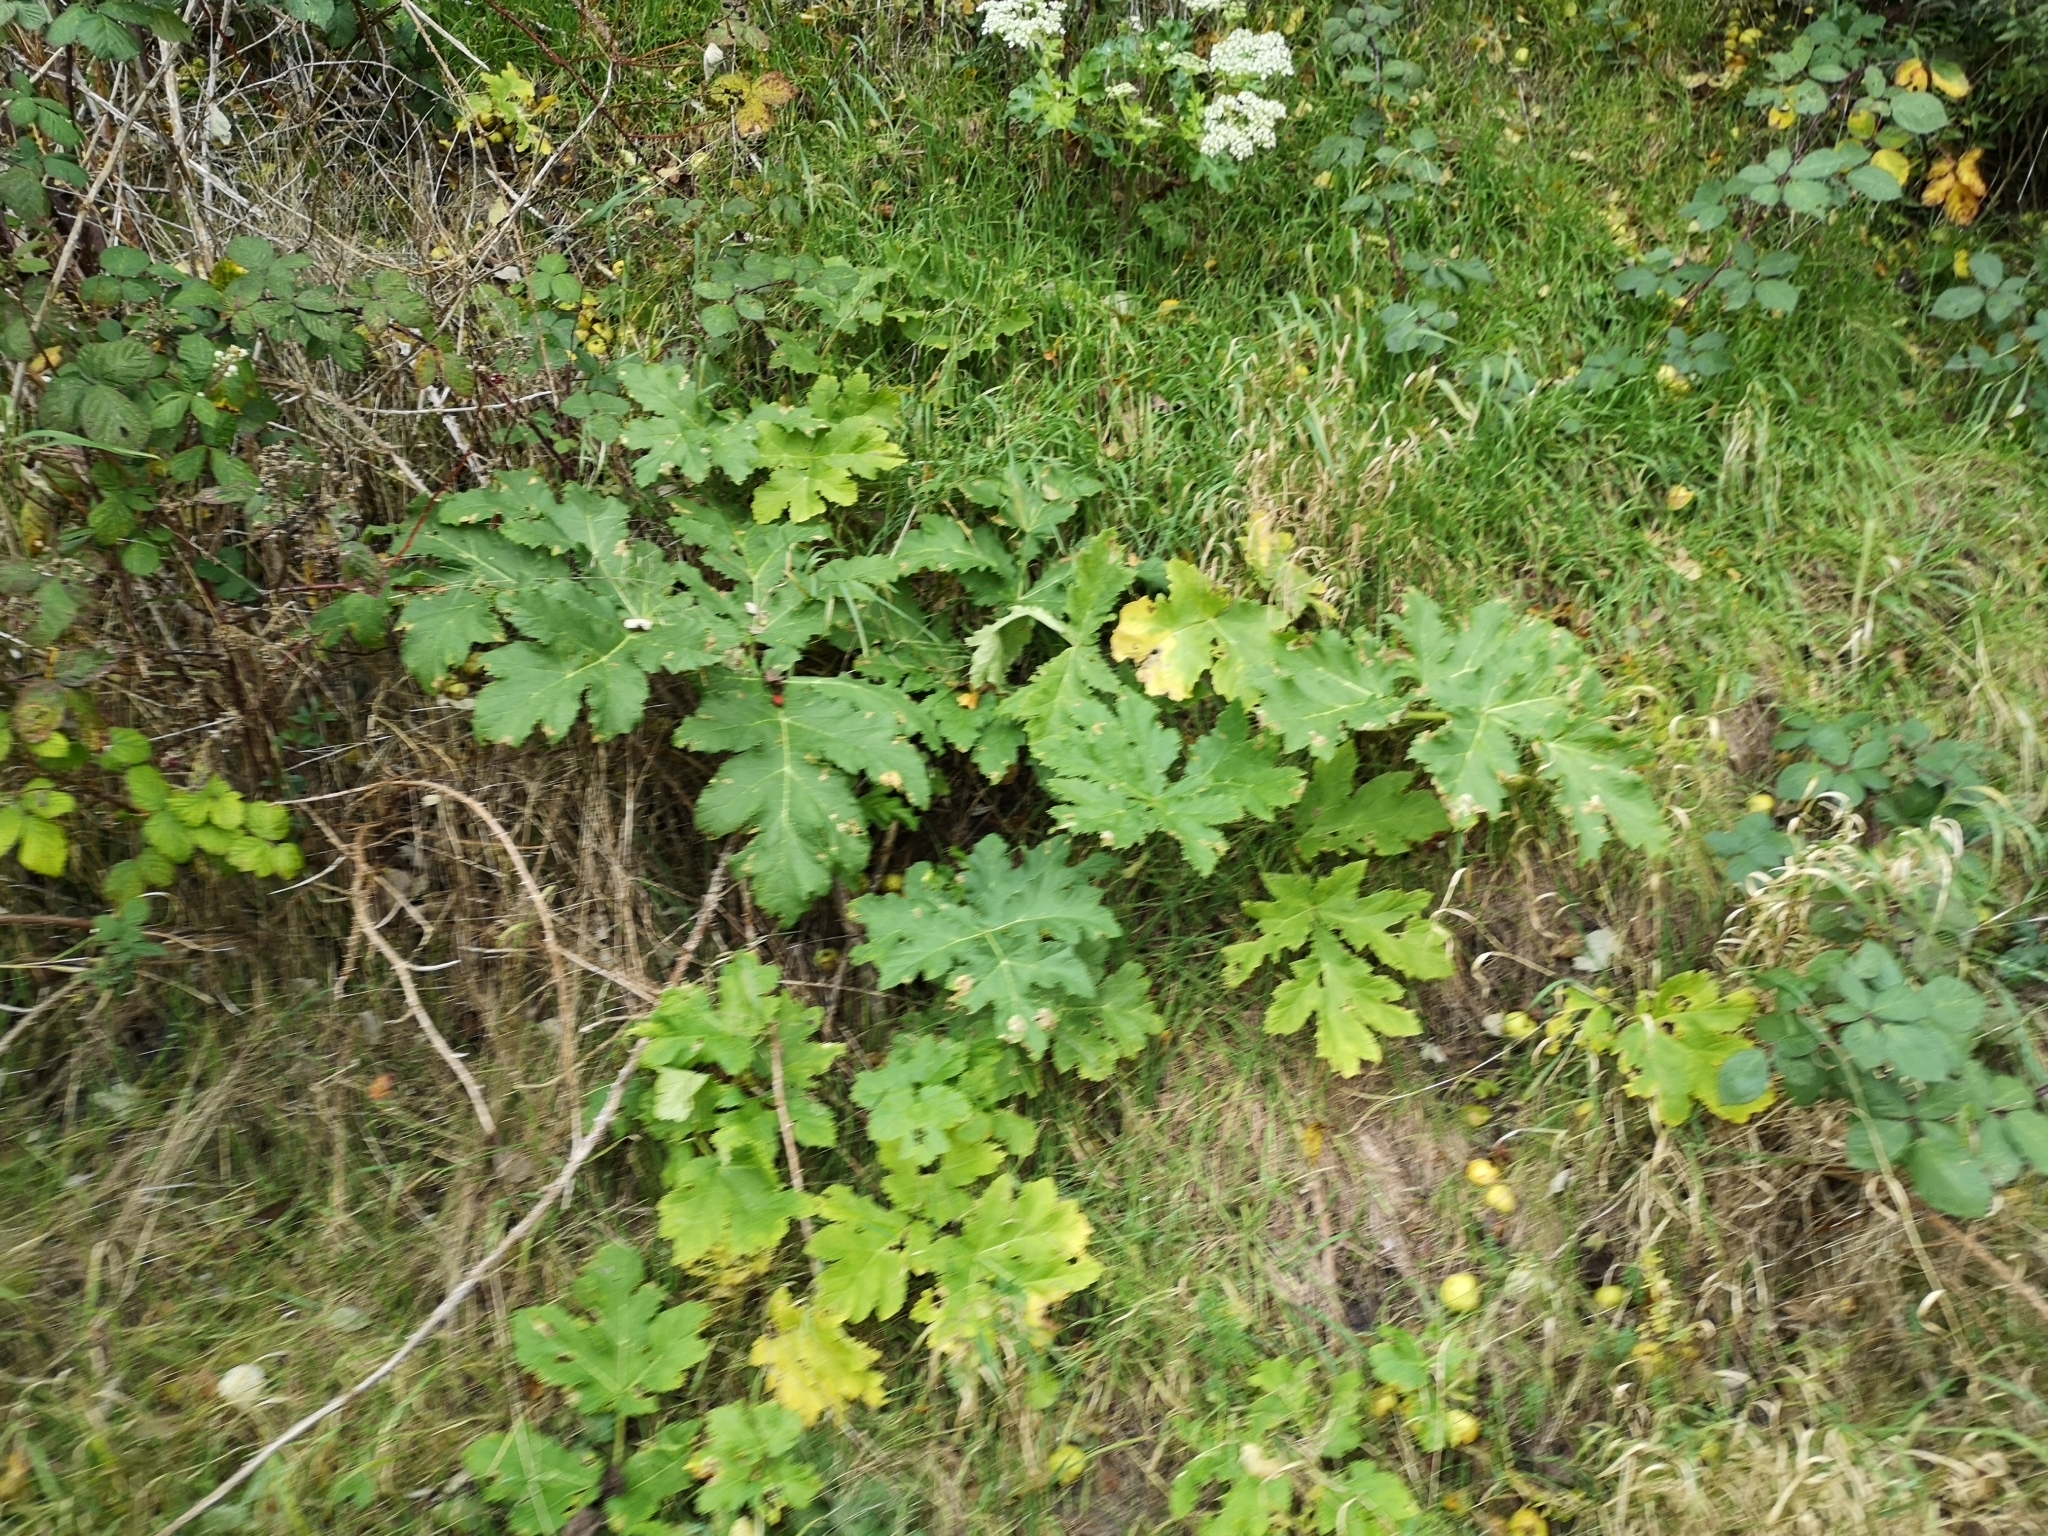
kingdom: Plantae
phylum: Tracheophyta
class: Magnoliopsida
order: Apiales
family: Apiaceae
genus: Heracleum
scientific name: Heracleum mantegazzianum
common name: Giant hogweed
